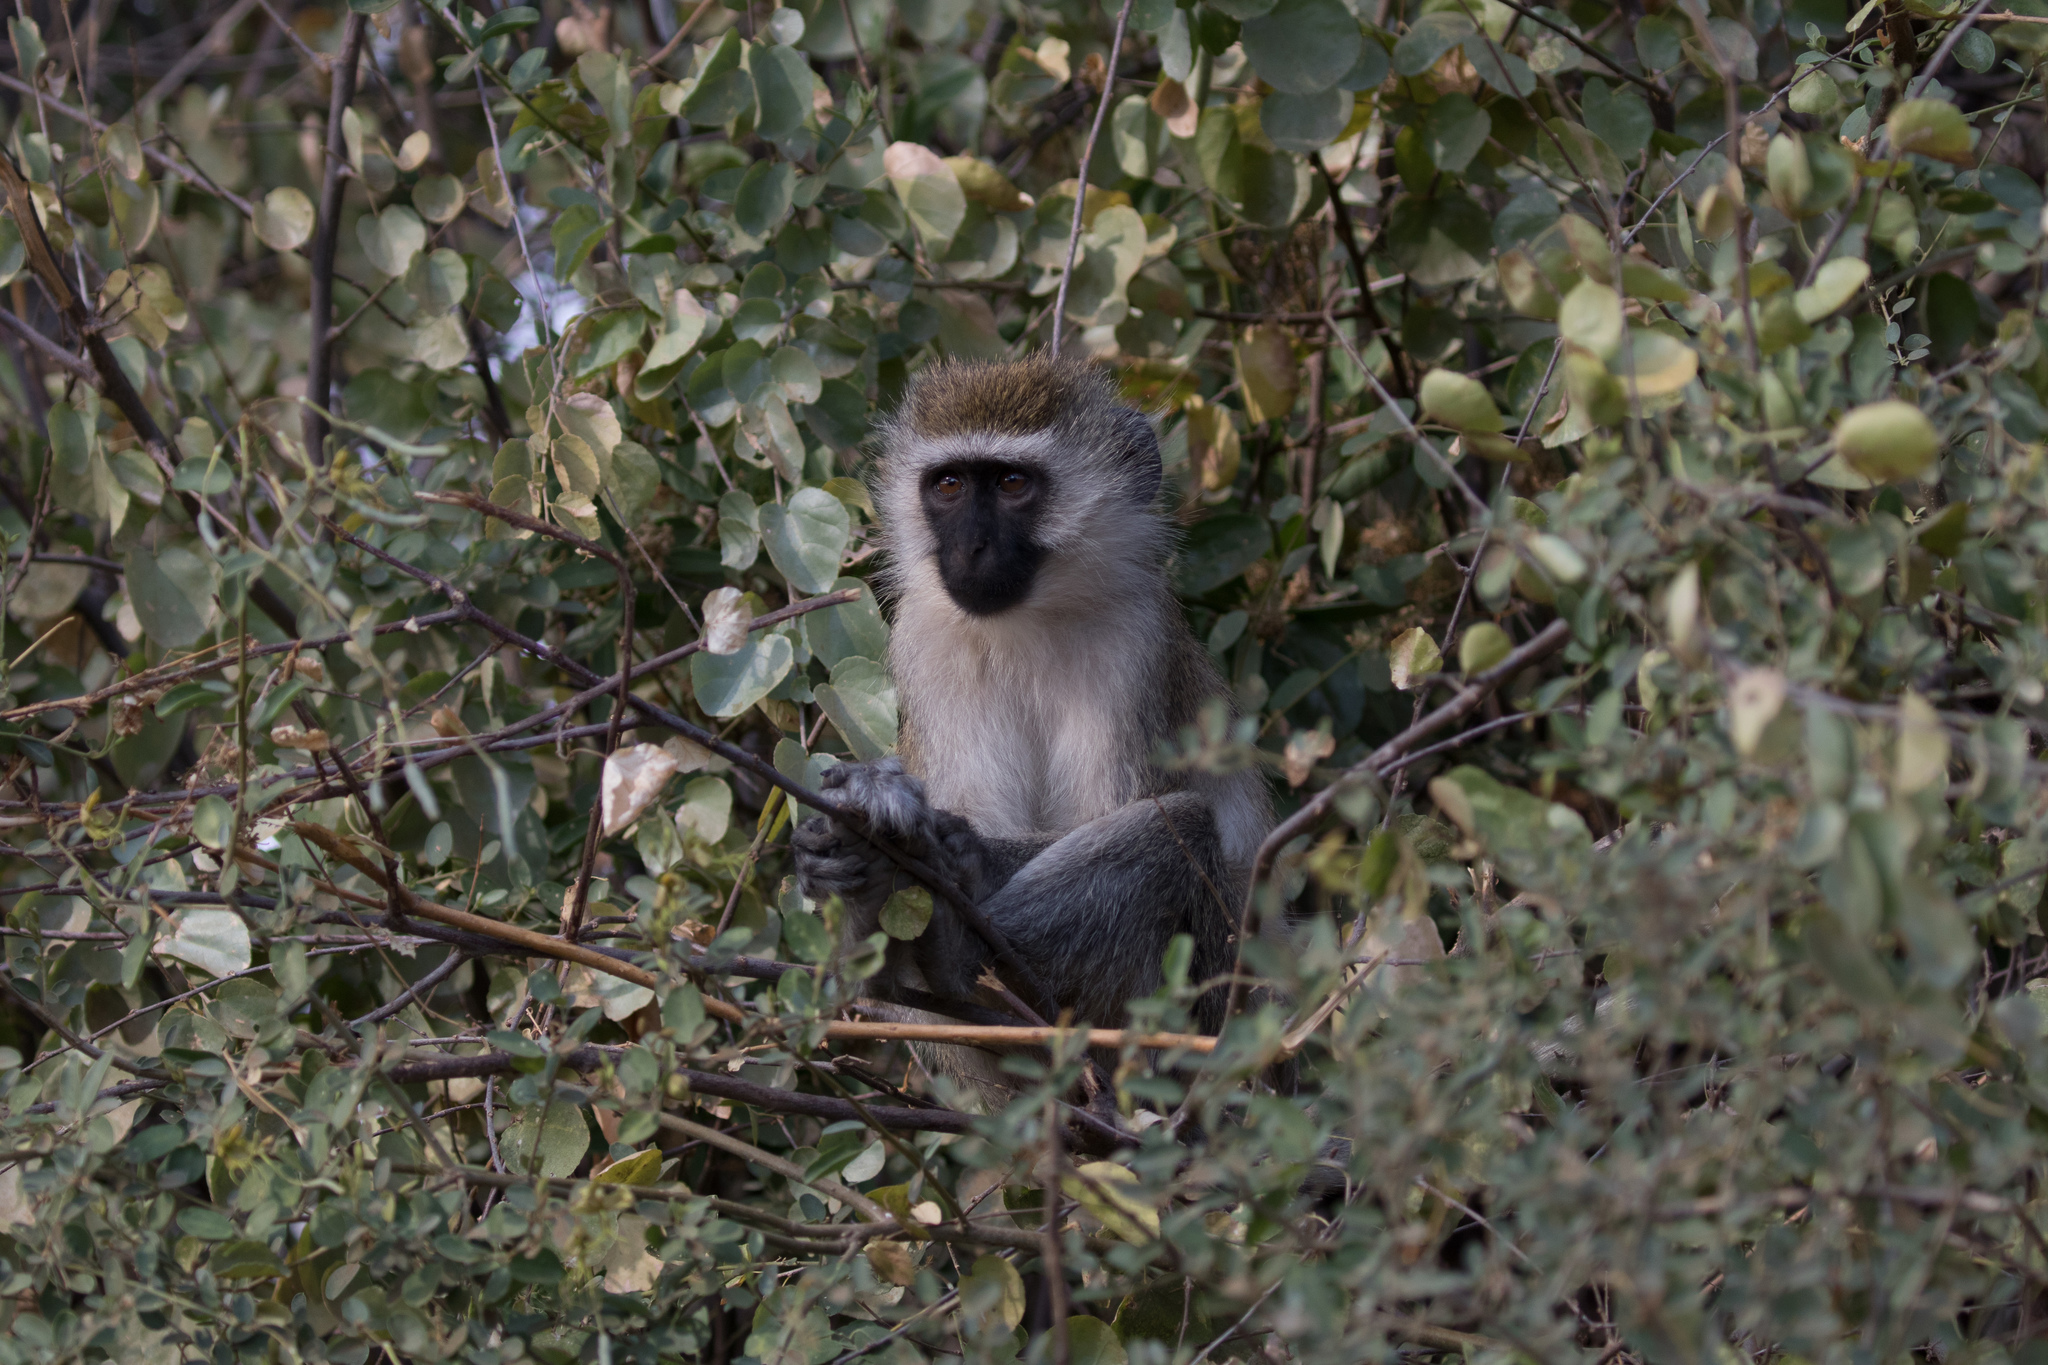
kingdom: Animalia
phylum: Chordata
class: Mammalia
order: Primates
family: Cercopithecidae
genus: Chlorocebus
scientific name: Chlorocebus pygerythrus
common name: Vervet monkey
